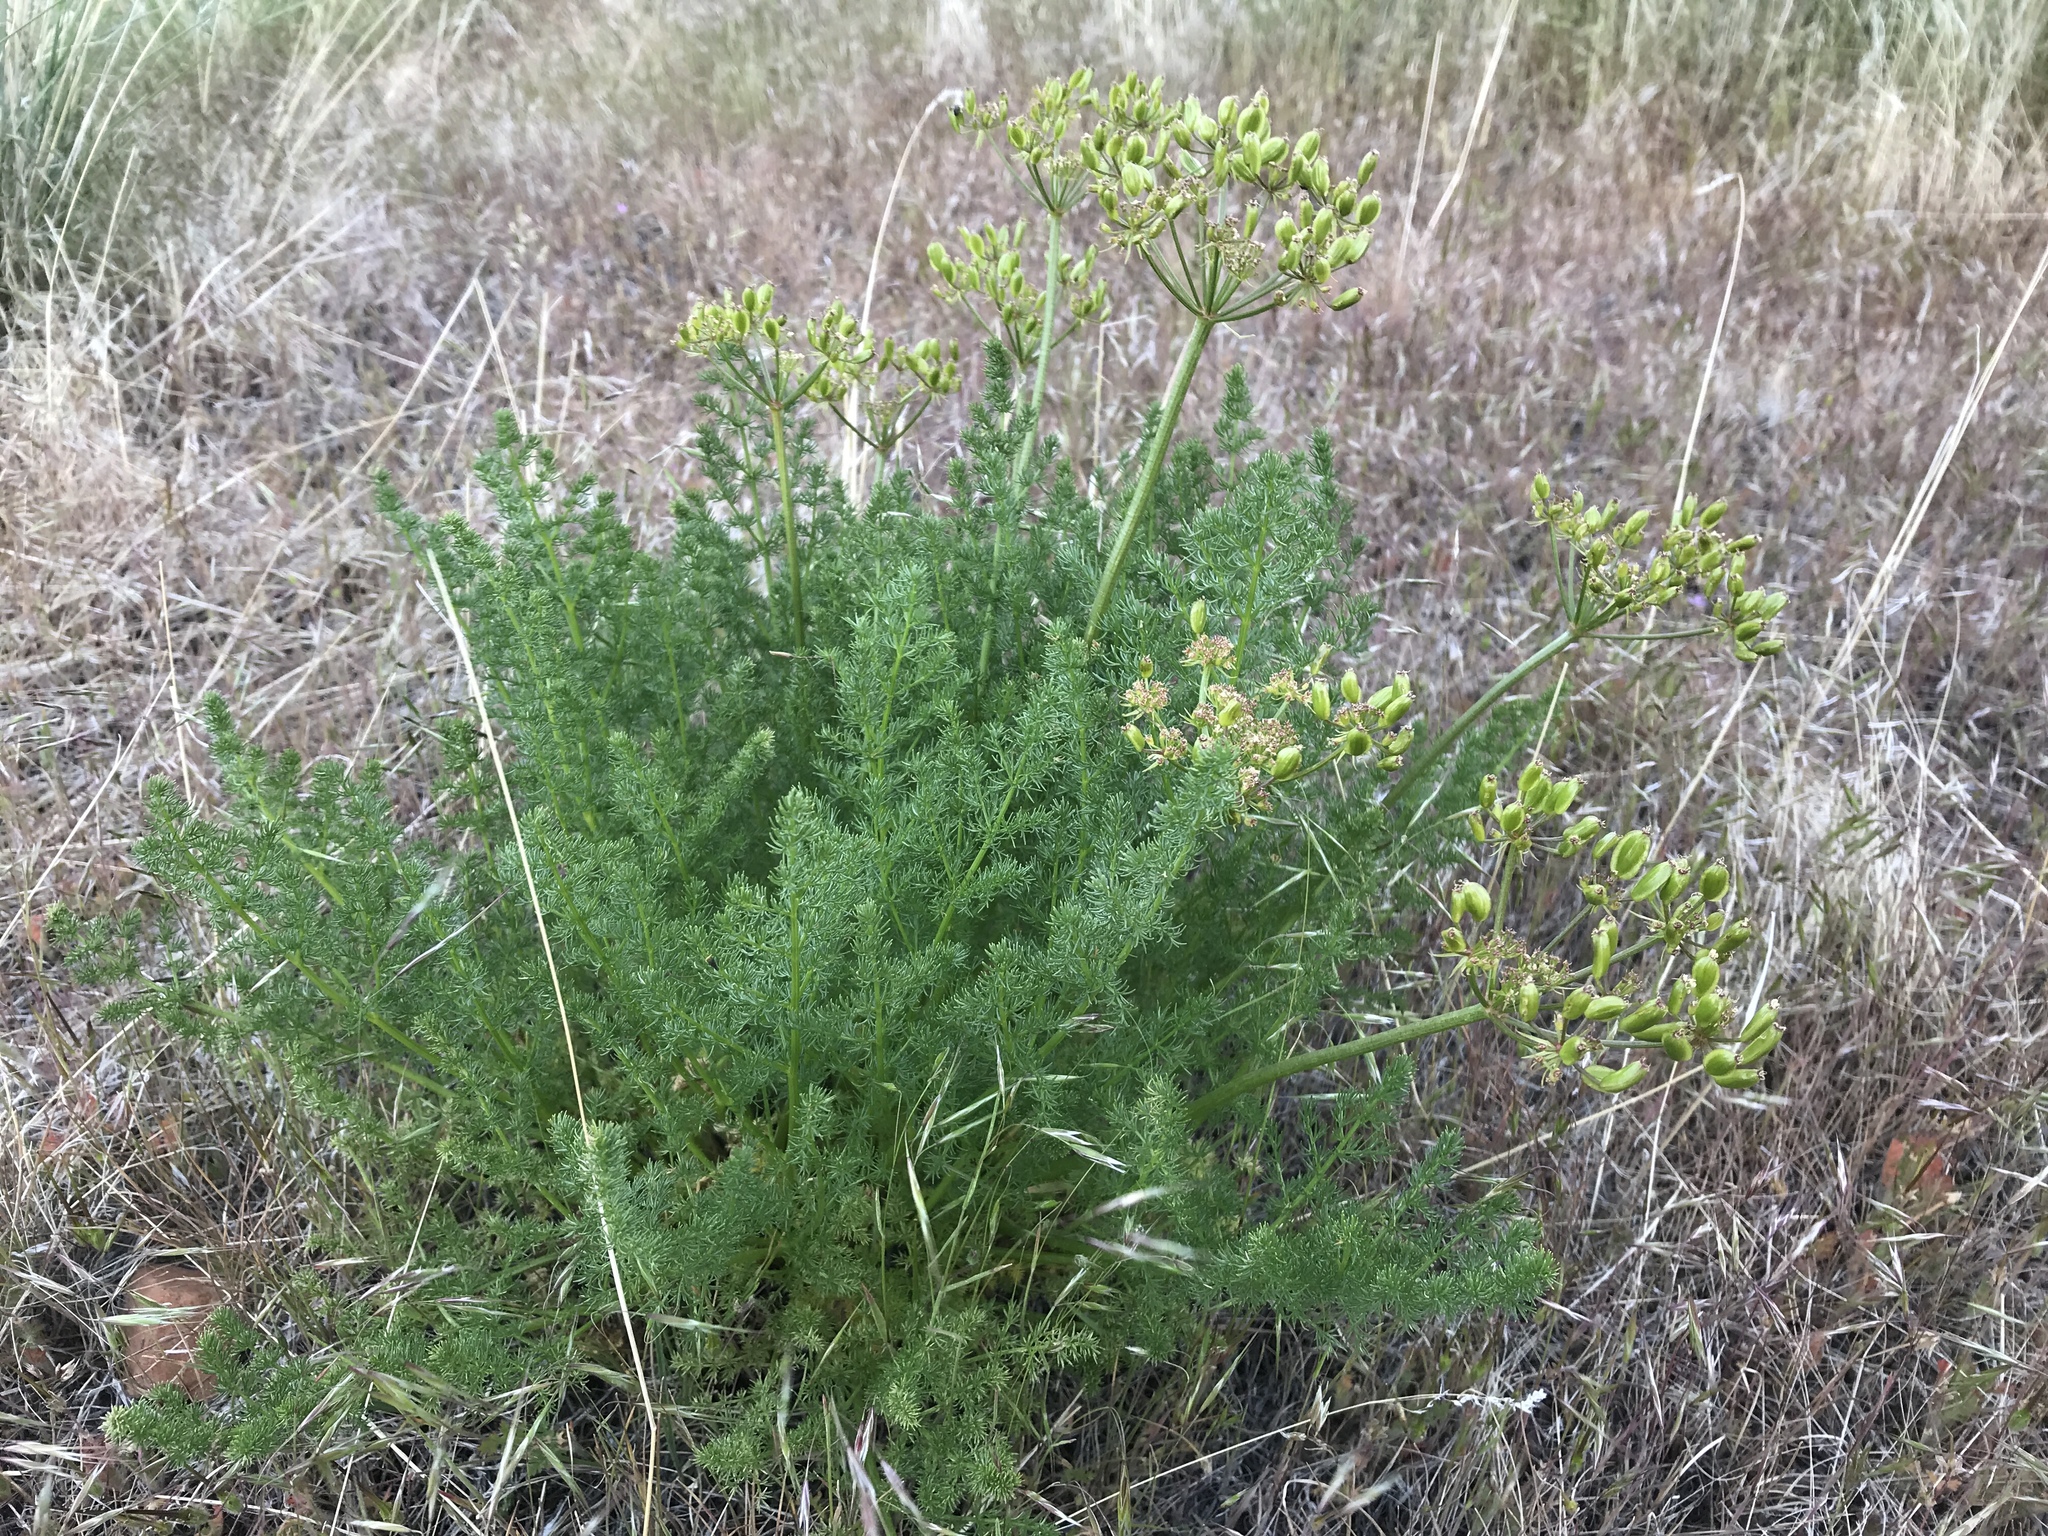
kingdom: Plantae
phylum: Tracheophyta
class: Magnoliopsida
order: Apiales
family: Apiaceae
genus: Lomatium
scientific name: Lomatium grayi
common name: Milfoil lomatium
